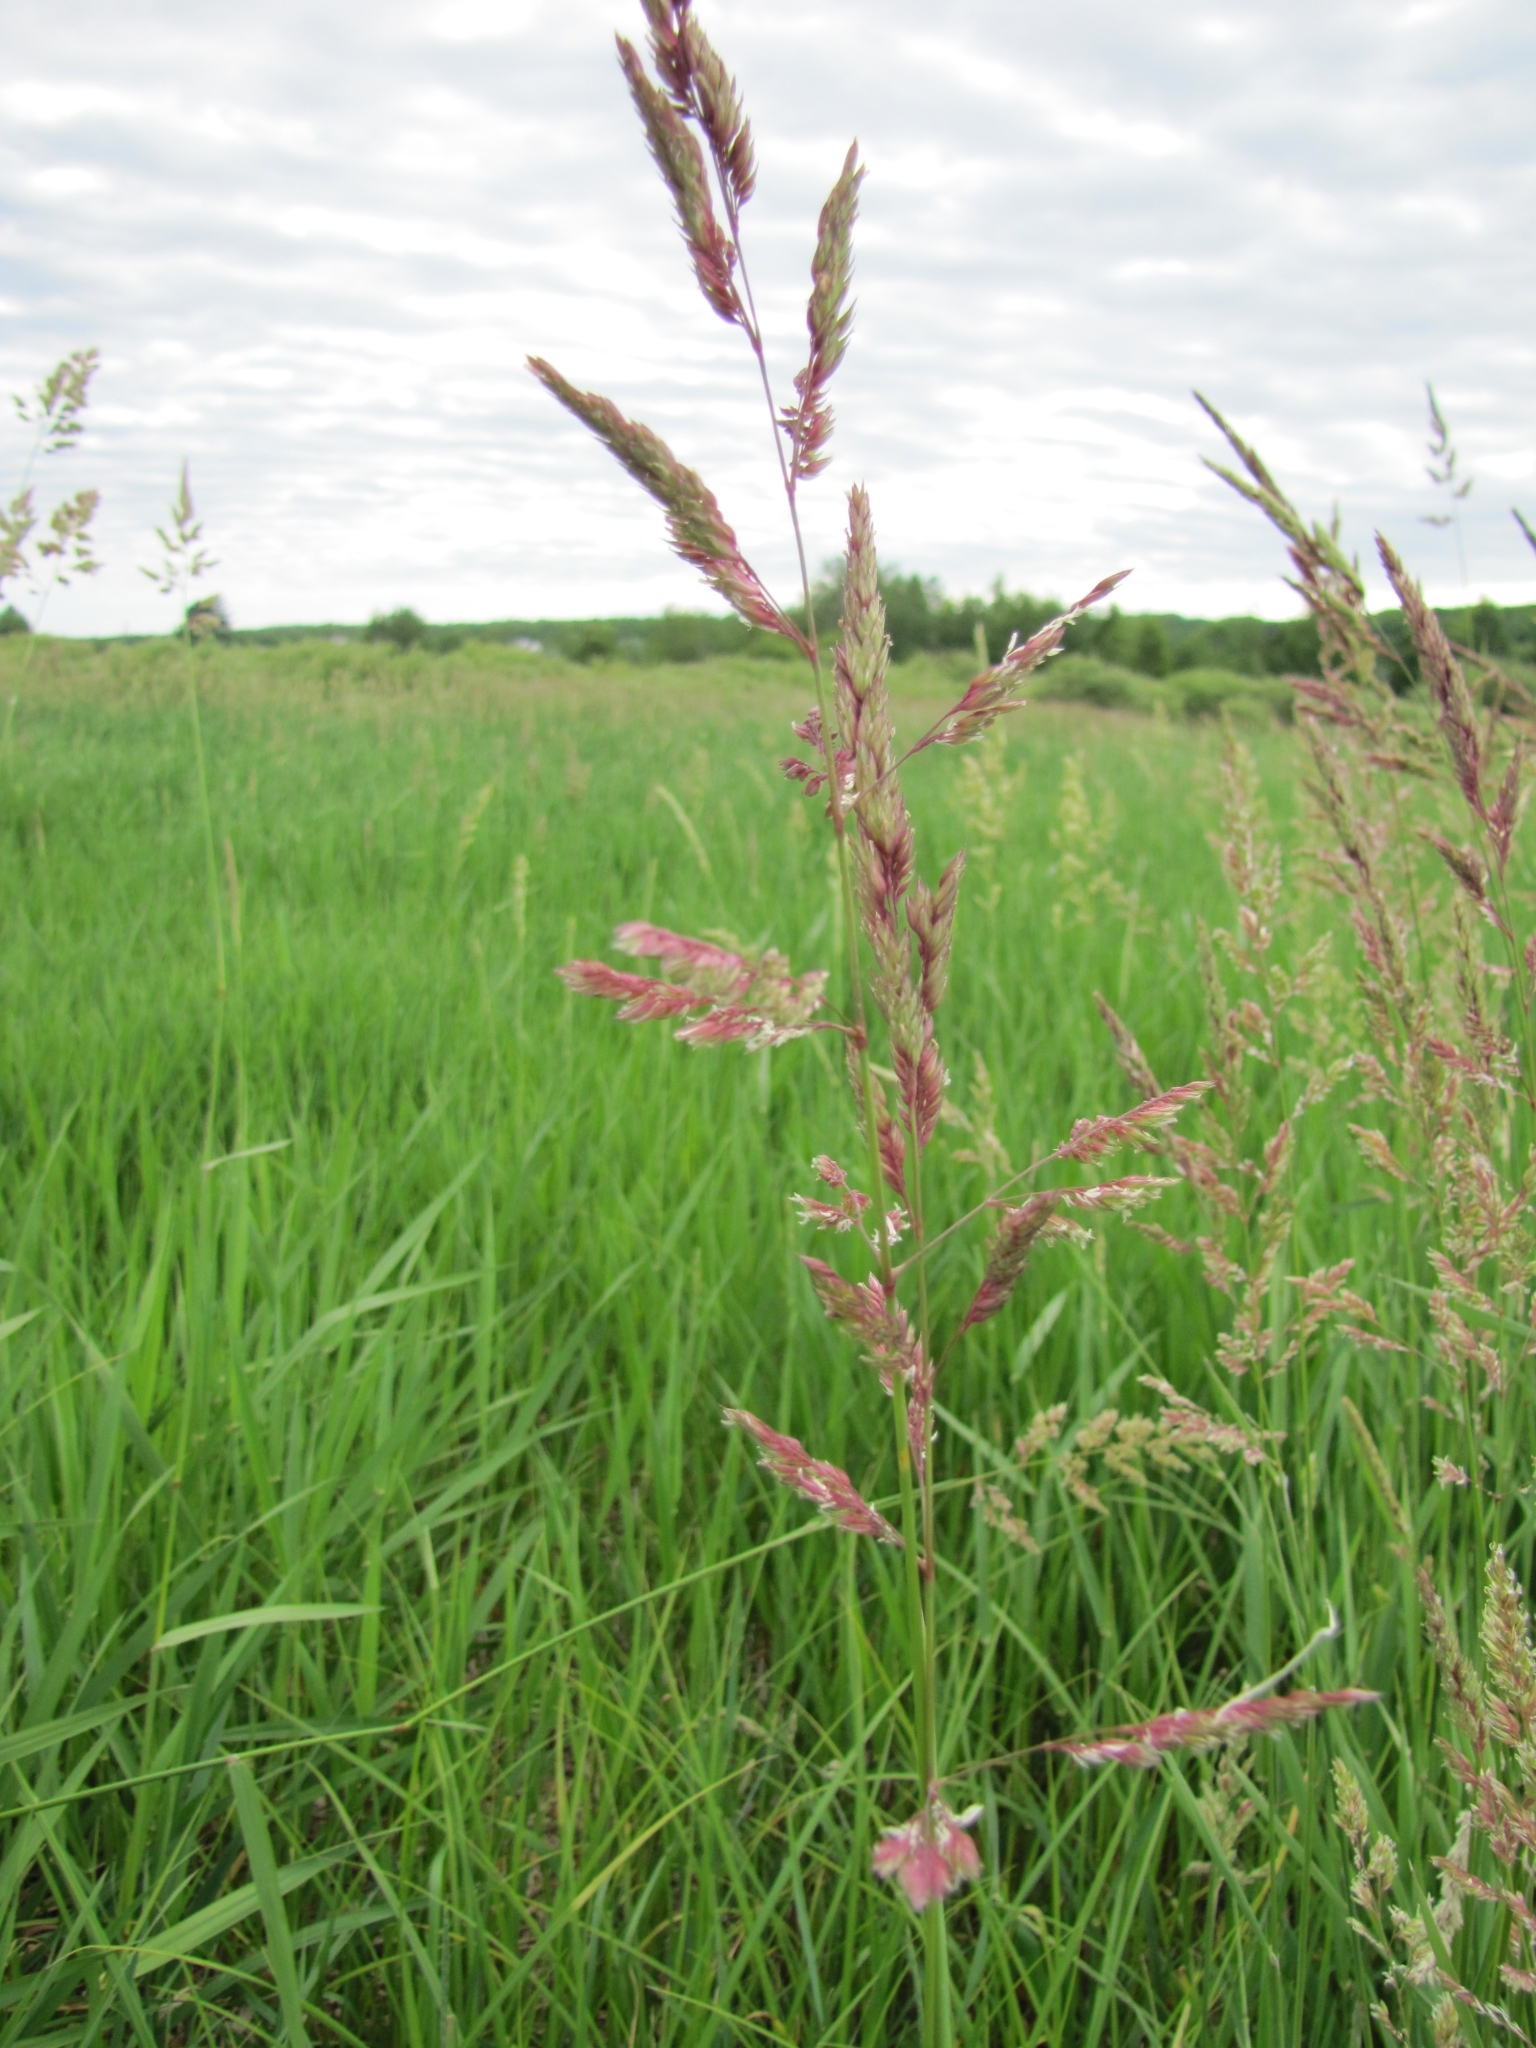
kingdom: Plantae
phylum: Tracheophyta
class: Liliopsida
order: Poales
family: Poaceae
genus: Phalaris
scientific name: Phalaris arundinacea
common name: Reed canary-grass
